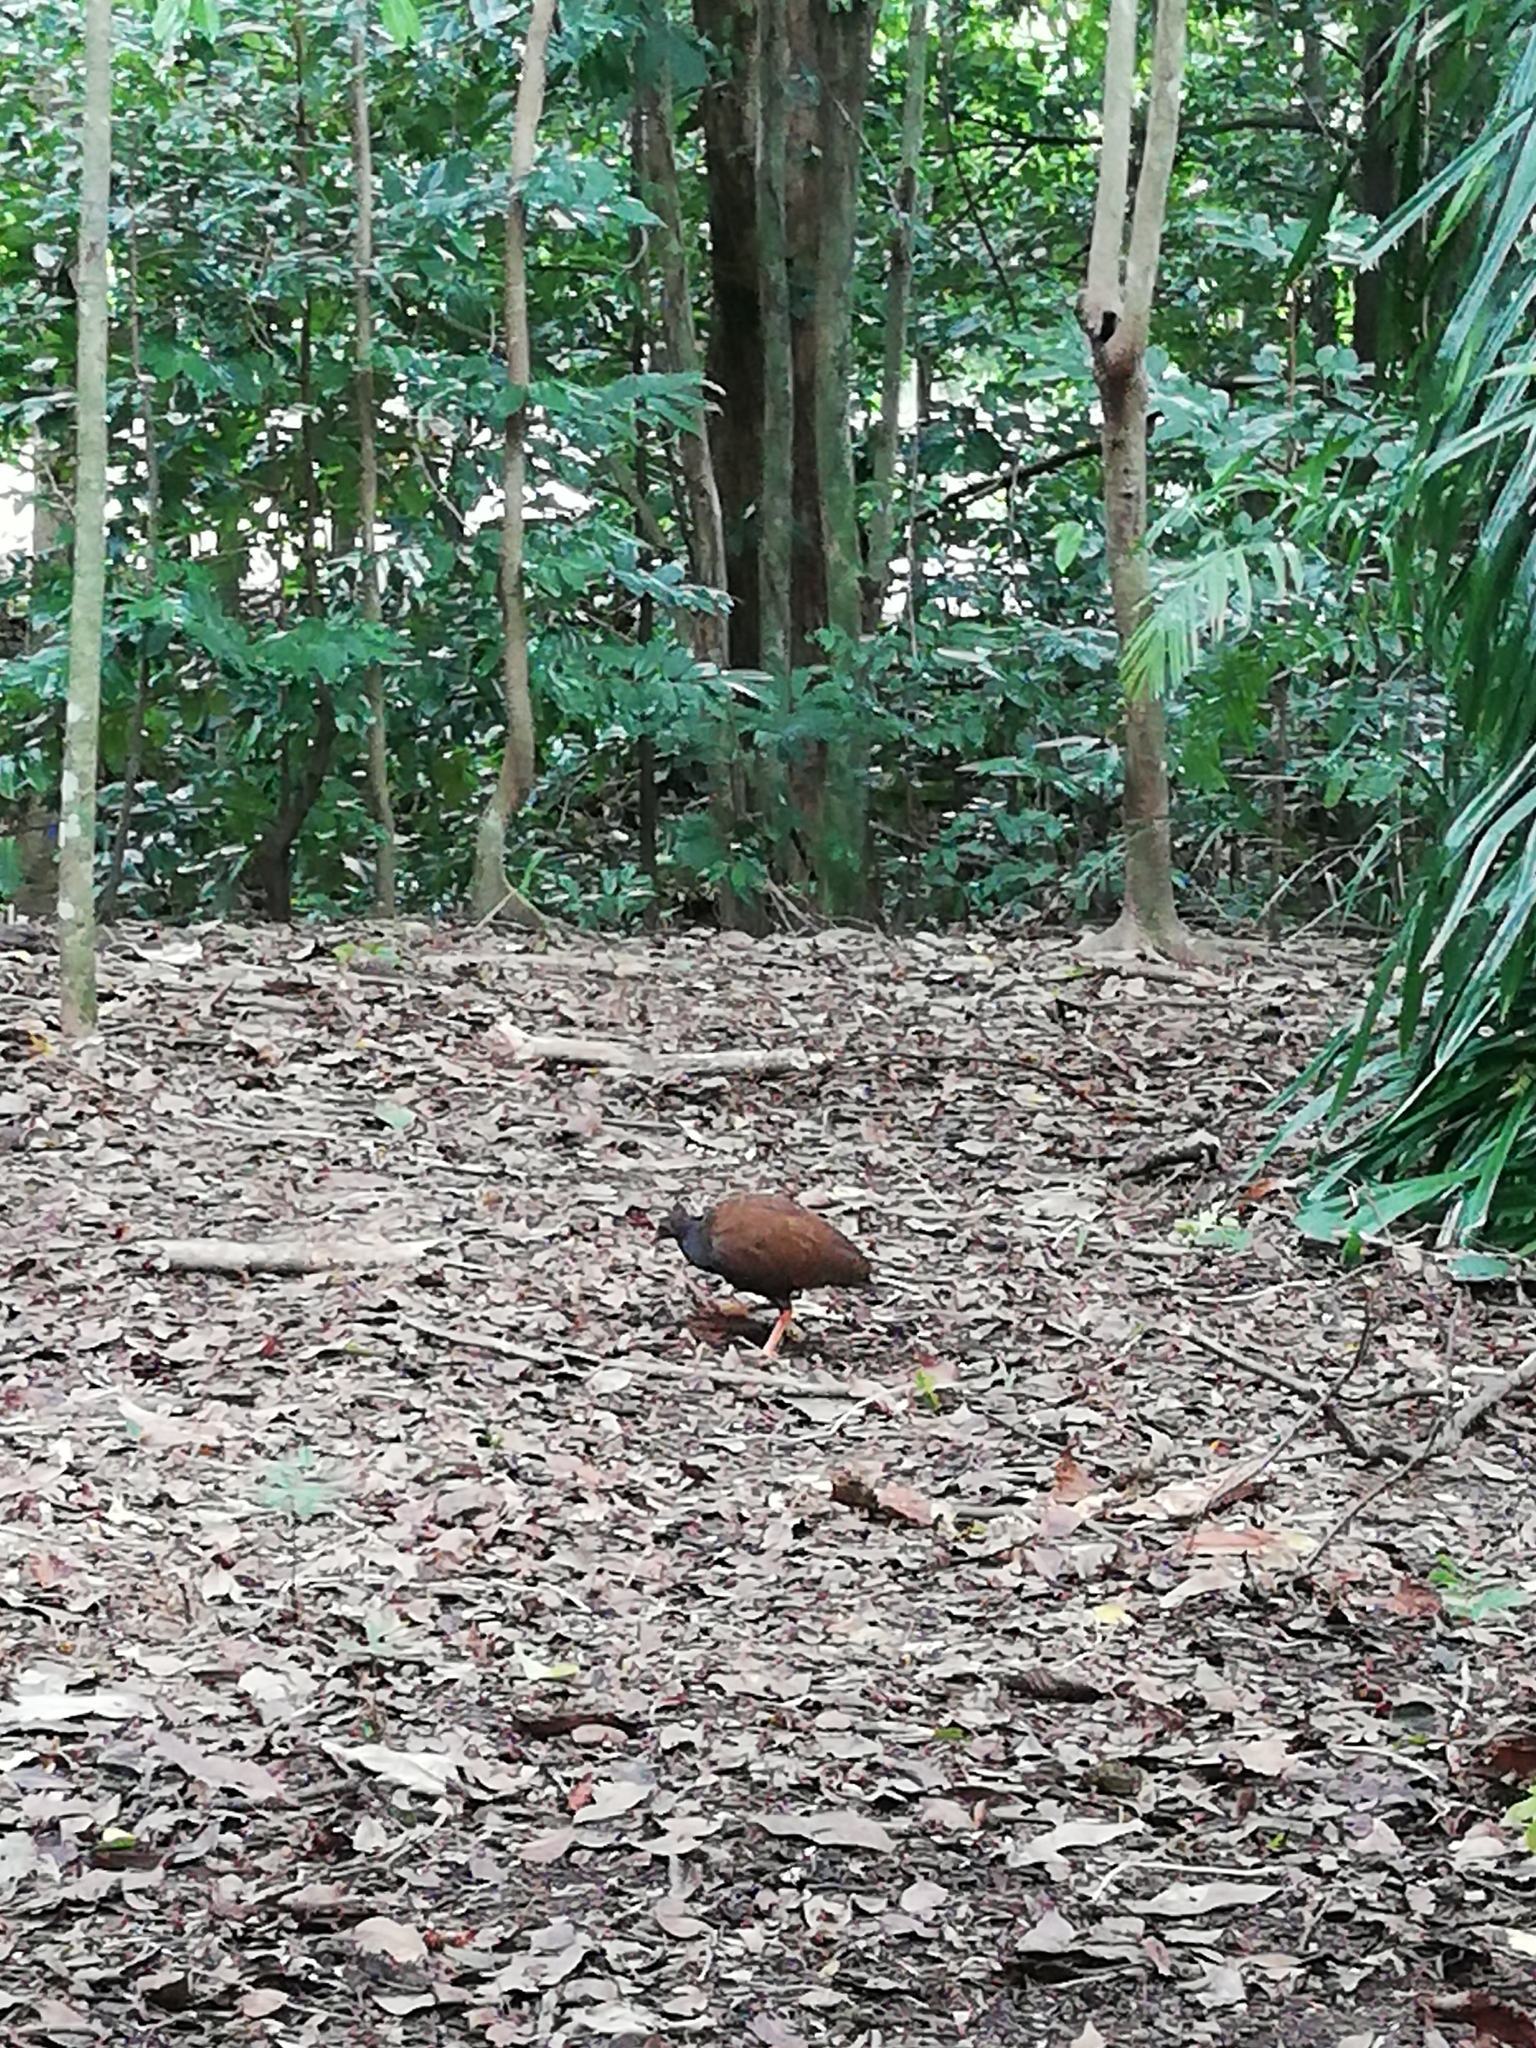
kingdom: Animalia
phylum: Chordata
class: Aves
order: Galliformes
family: Megapodiidae
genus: Megapodius
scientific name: Megapodius reinwardt
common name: Orange-footed scrubfowl
